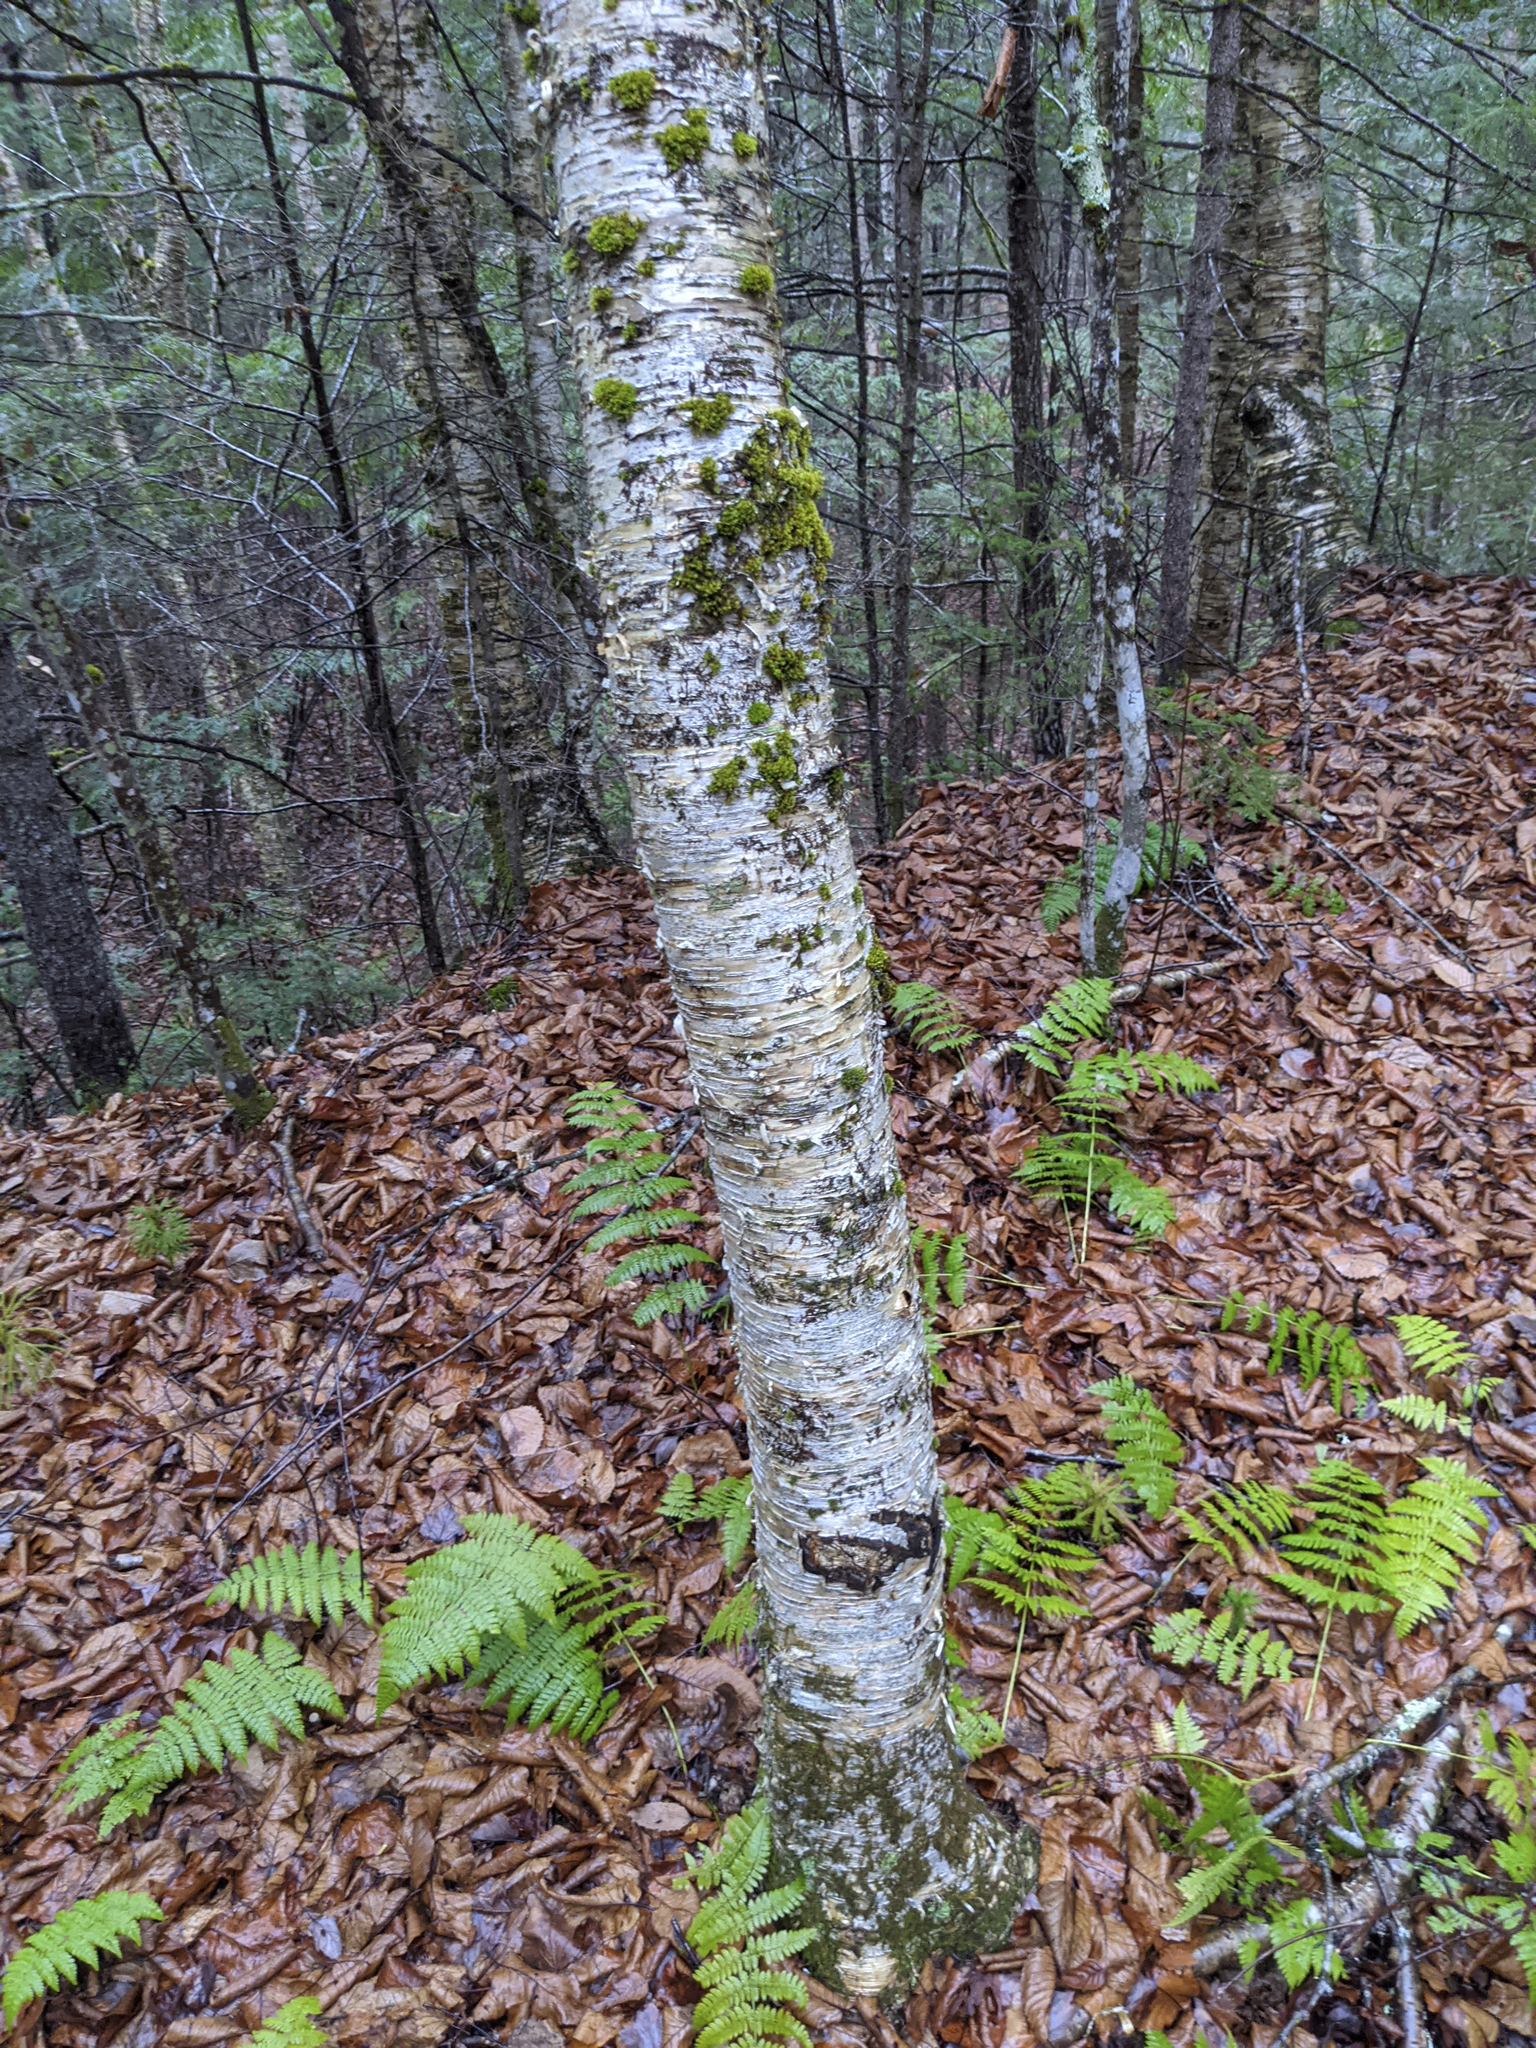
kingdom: Plantae
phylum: Bryophyta
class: Bryopsida
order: Orthotrichales
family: Orthotrichaceae
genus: Ulota
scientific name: Ulota crispa
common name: Crisped pincushion moss
